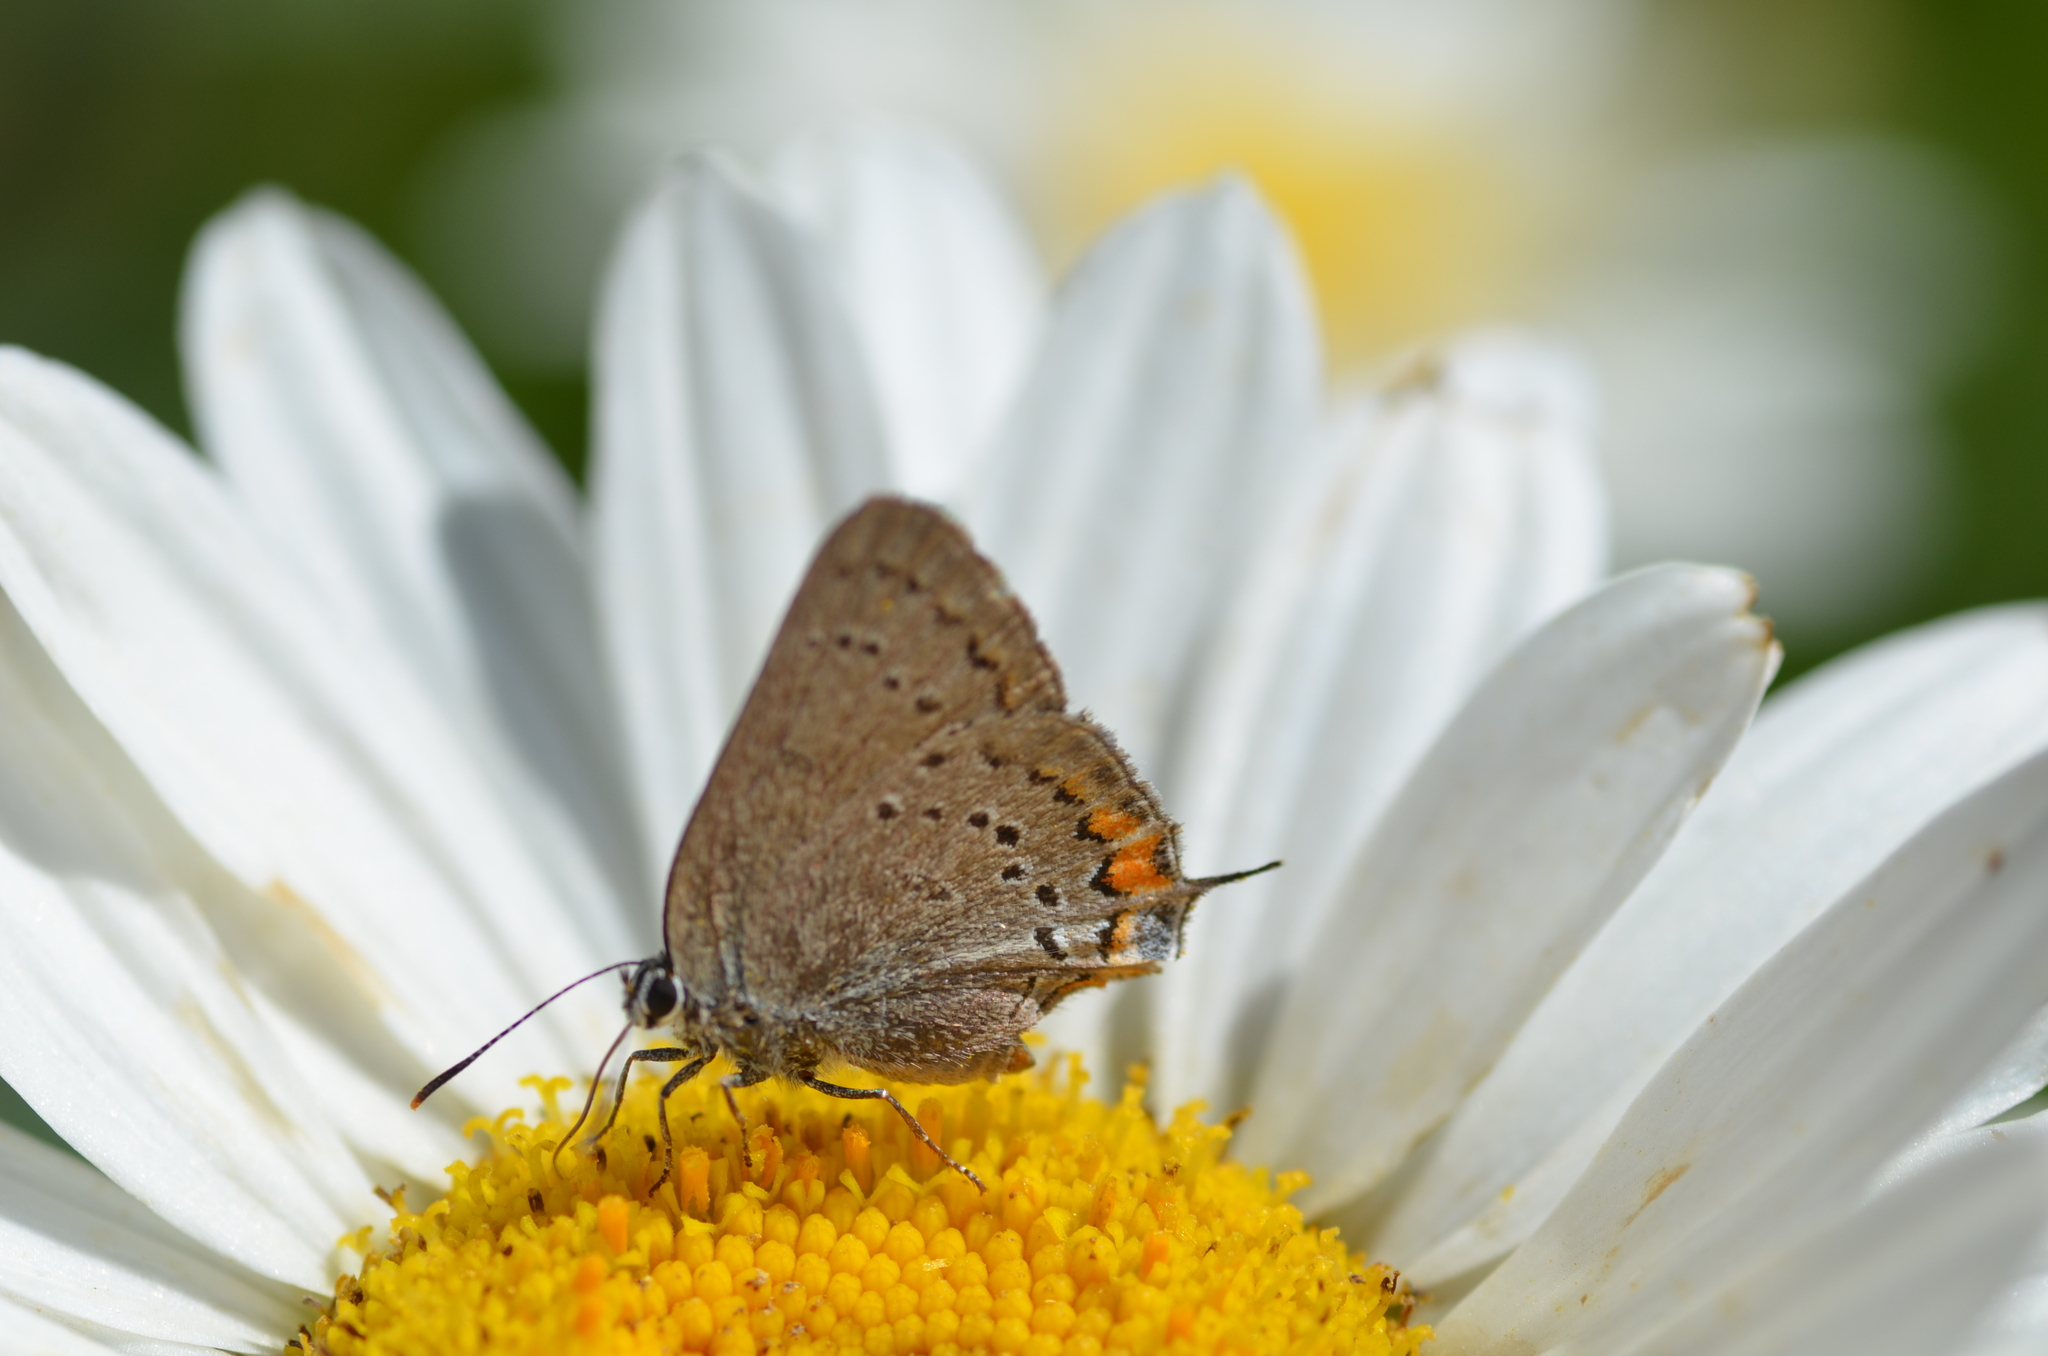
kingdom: Animalia
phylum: Arthropoda
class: Insecta
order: Lepidoptera
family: Lycaenidae
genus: Strymon
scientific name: Strymon acadica
